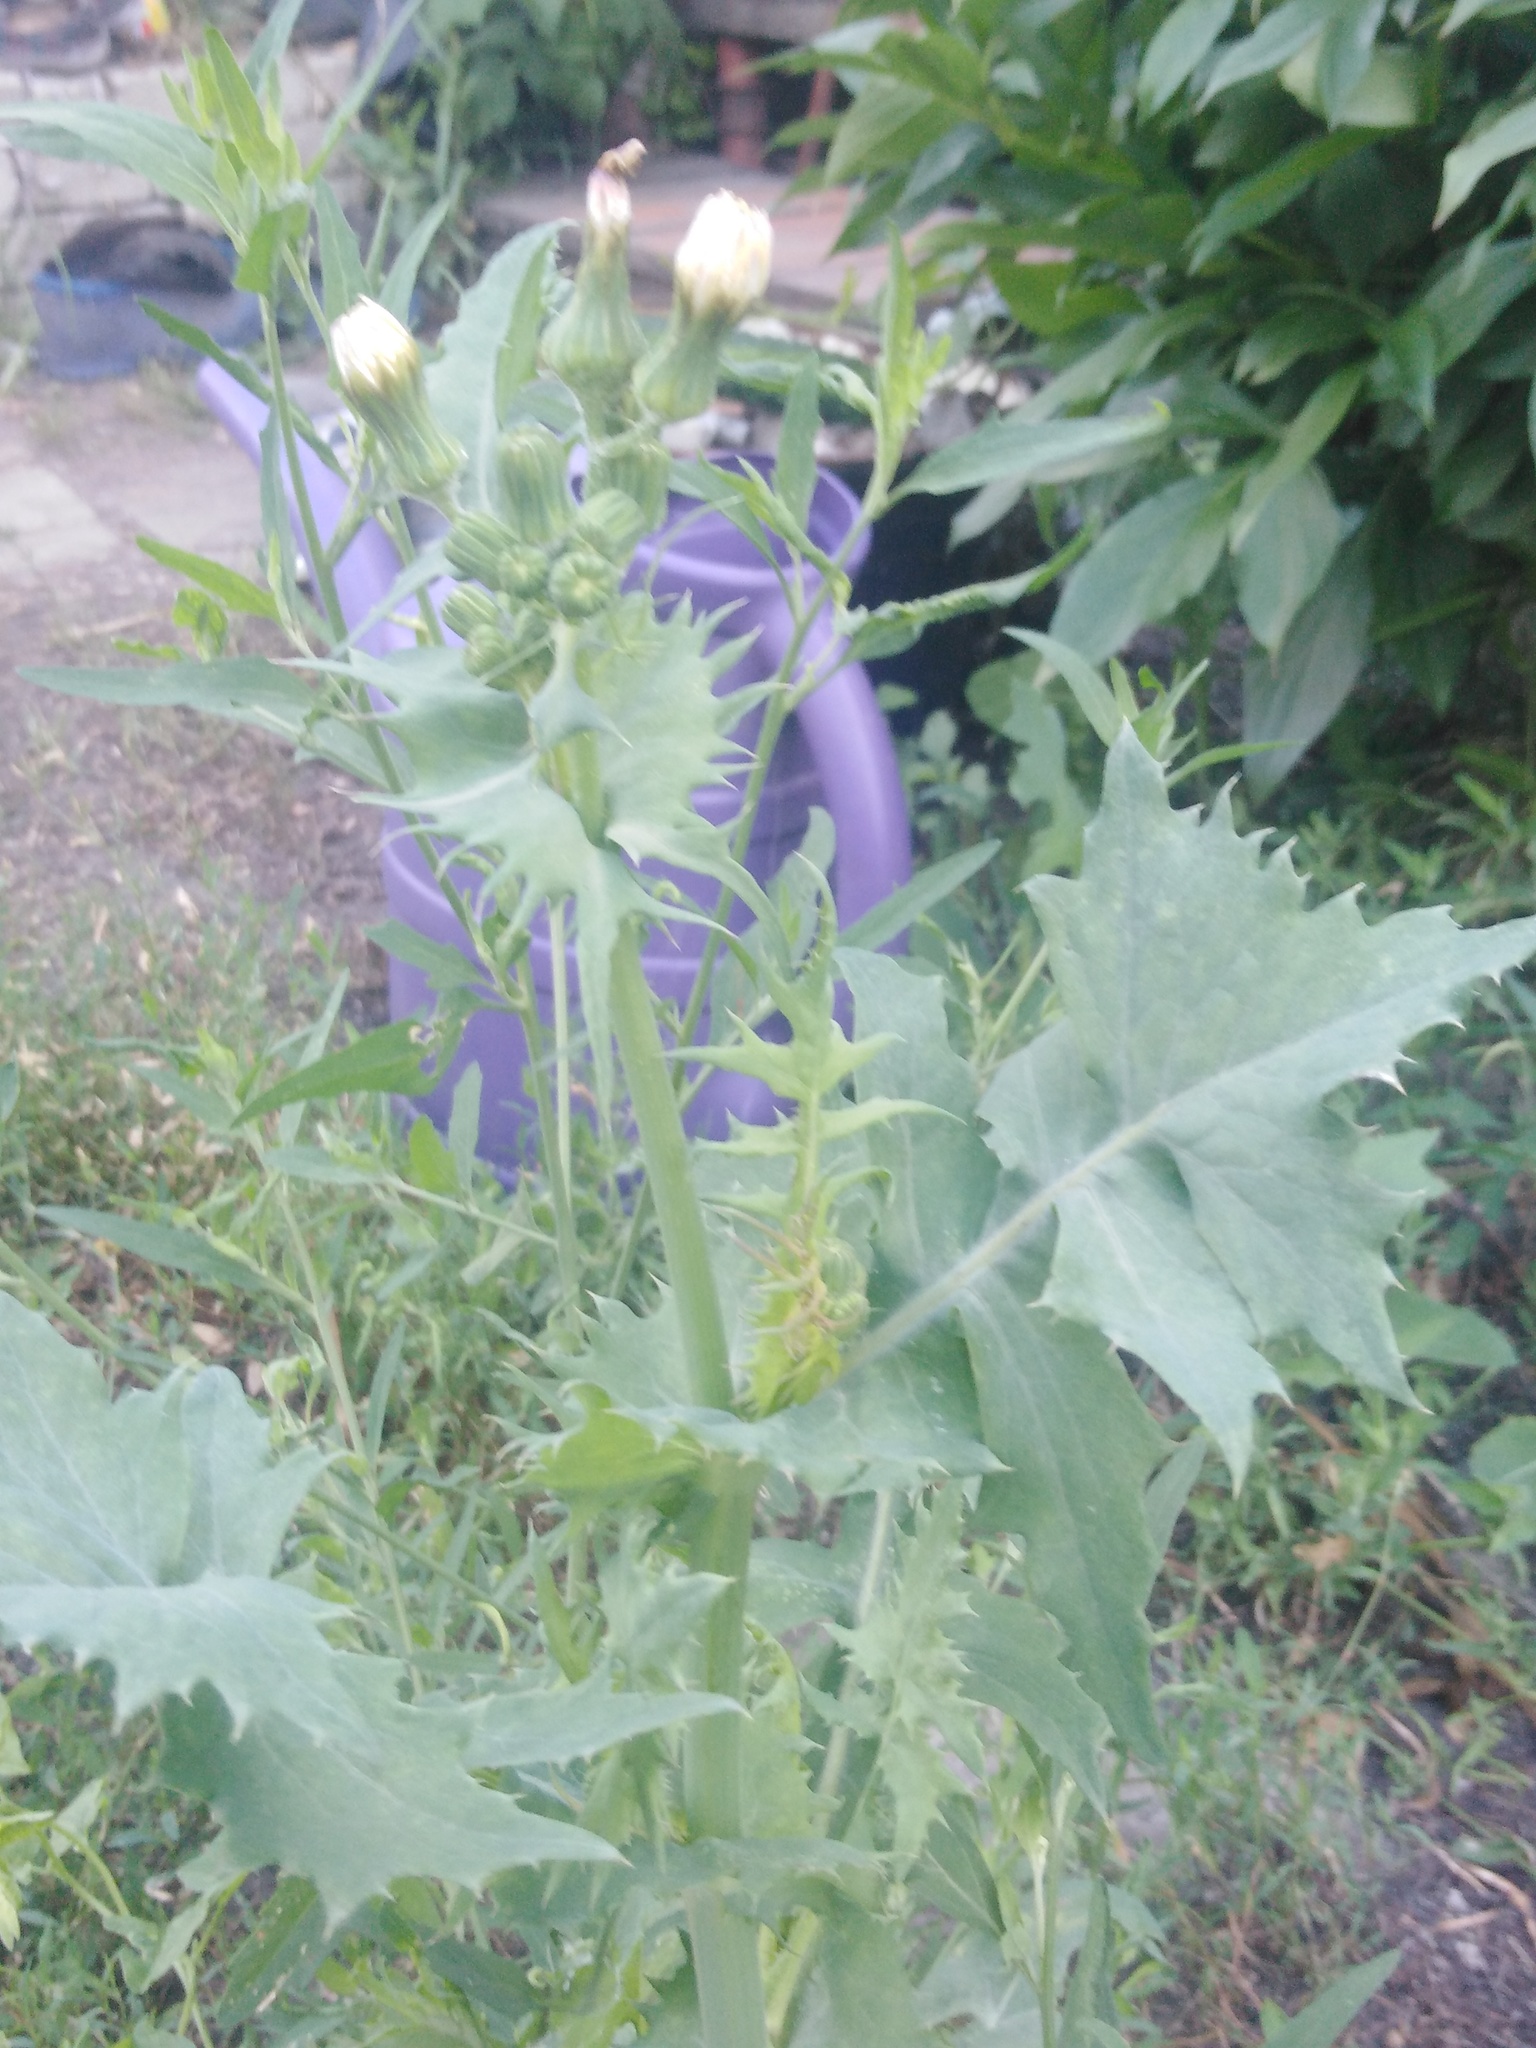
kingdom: Plantae
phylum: Tracheophyta
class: Magnoliopsida
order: Asterales
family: Asteraceae
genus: Sonchus
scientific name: Sonchus oleraceus
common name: Common sowthistle
